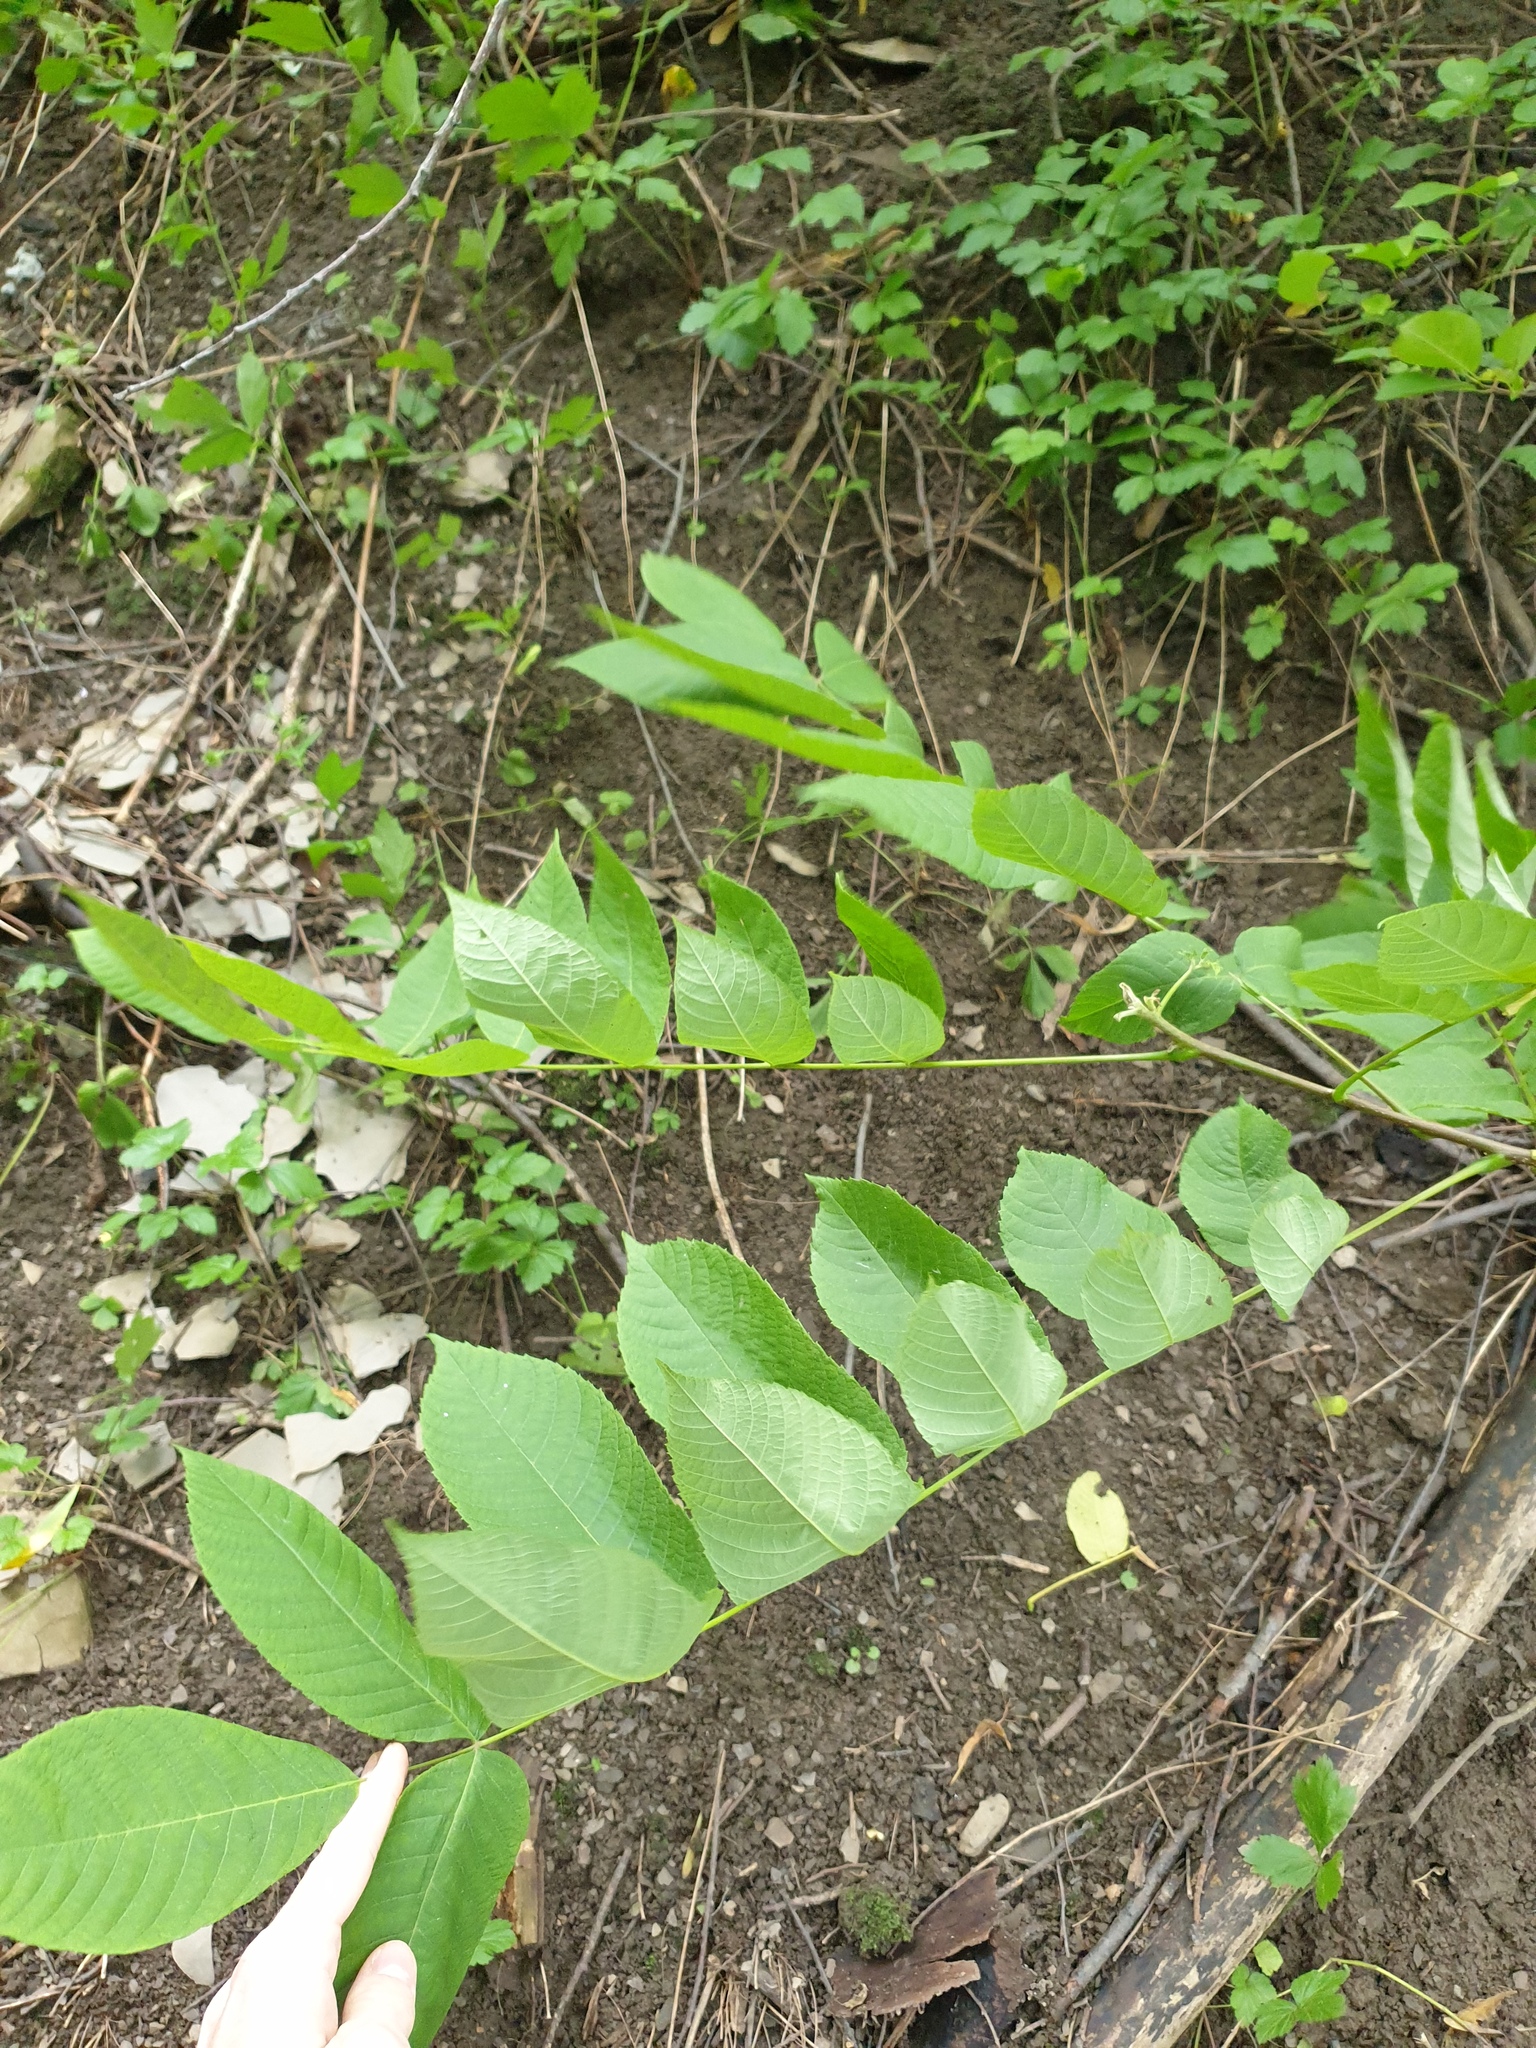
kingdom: Plantae
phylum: Tracheophyta
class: Magnoliopsida
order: Fagales
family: Juglandaceae
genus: Juglans
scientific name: Juglans cinerea
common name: Butternut
